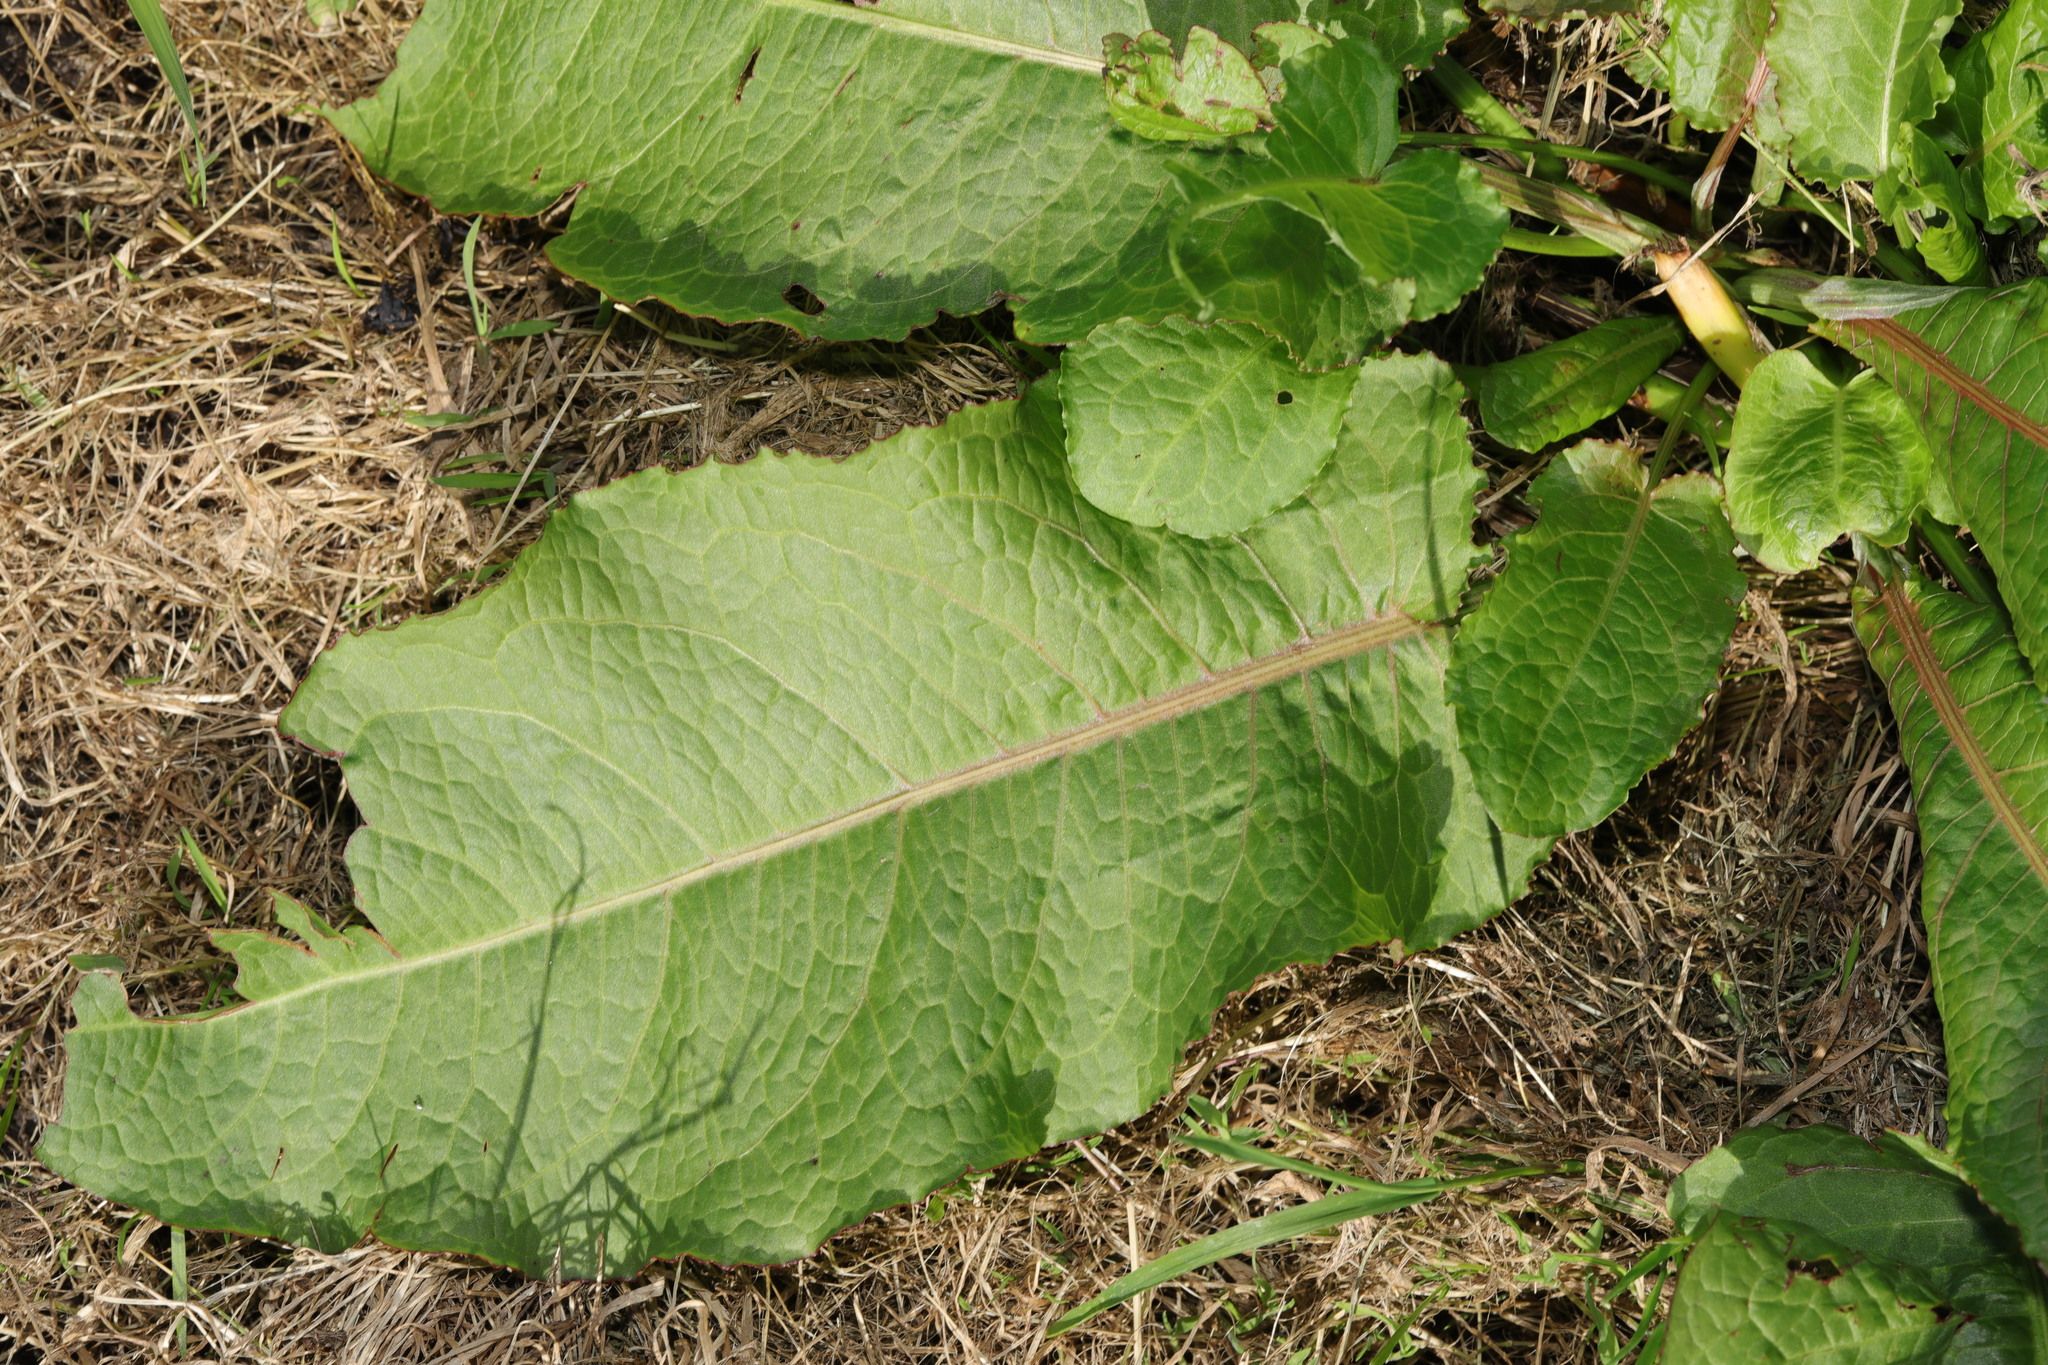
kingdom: Plantae
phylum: Tracheophyta
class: Magnoliopsida
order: Caryophyllales
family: Polygonaceae
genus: Rumex
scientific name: Rumex obtusifolius
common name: Bitter dock
